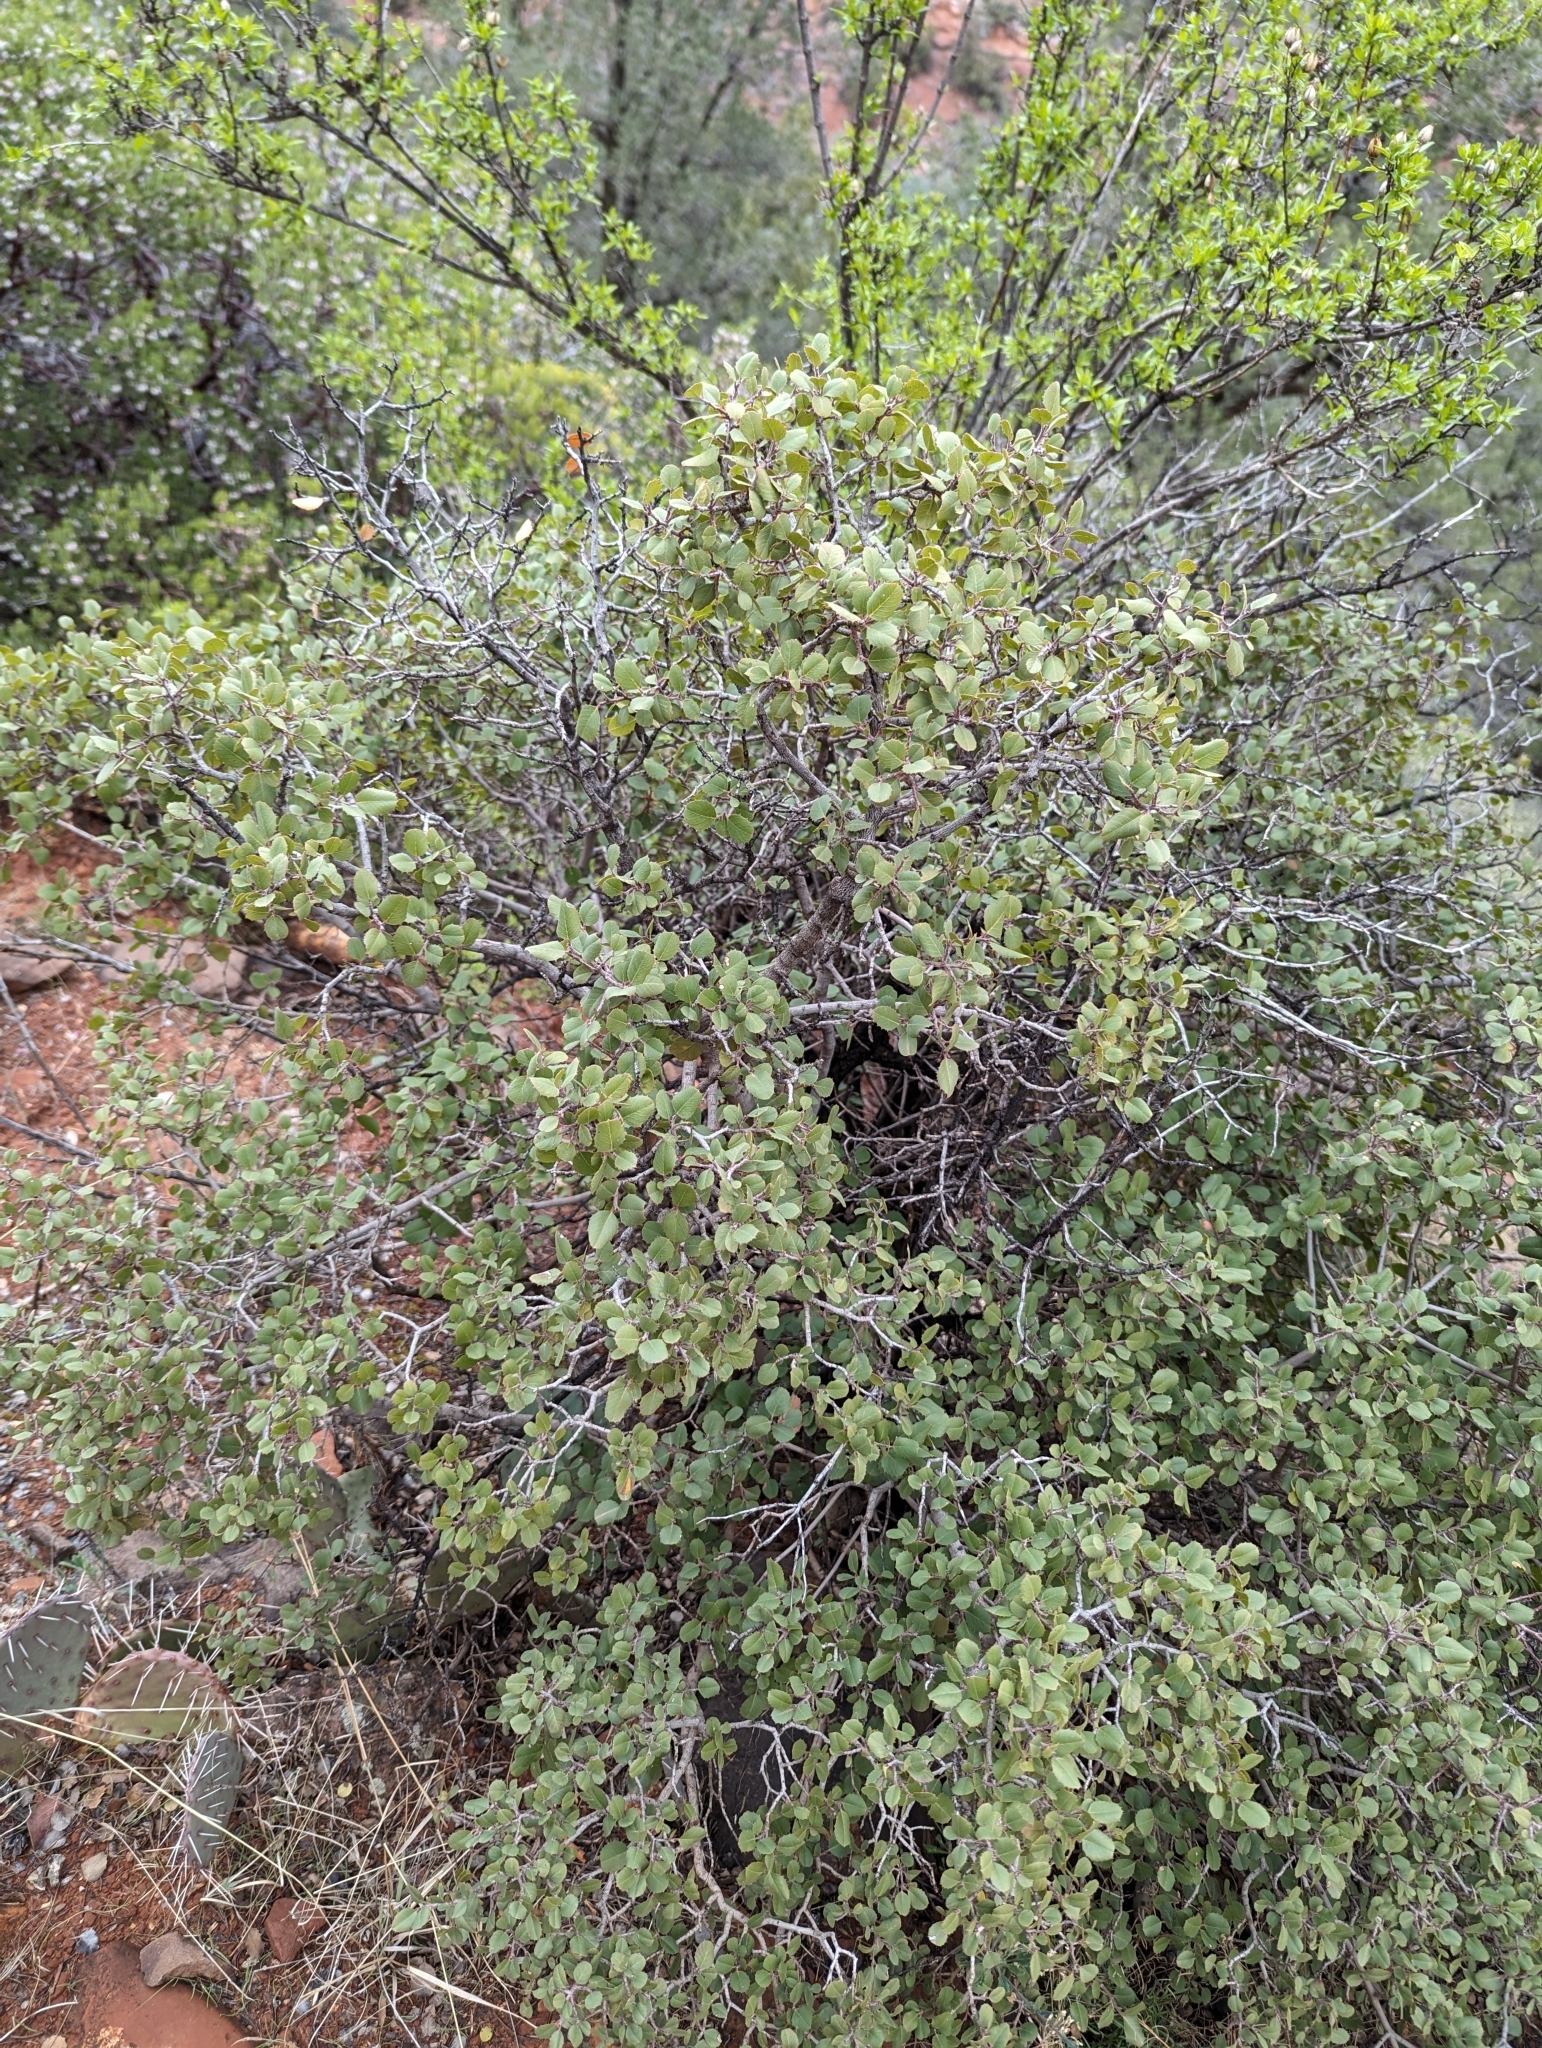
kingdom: Plantae
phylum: Tracheophyta
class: Magnoliopsida
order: Rosales
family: Rhamnaceae
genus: Endotropis
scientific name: Endotropis crocea
